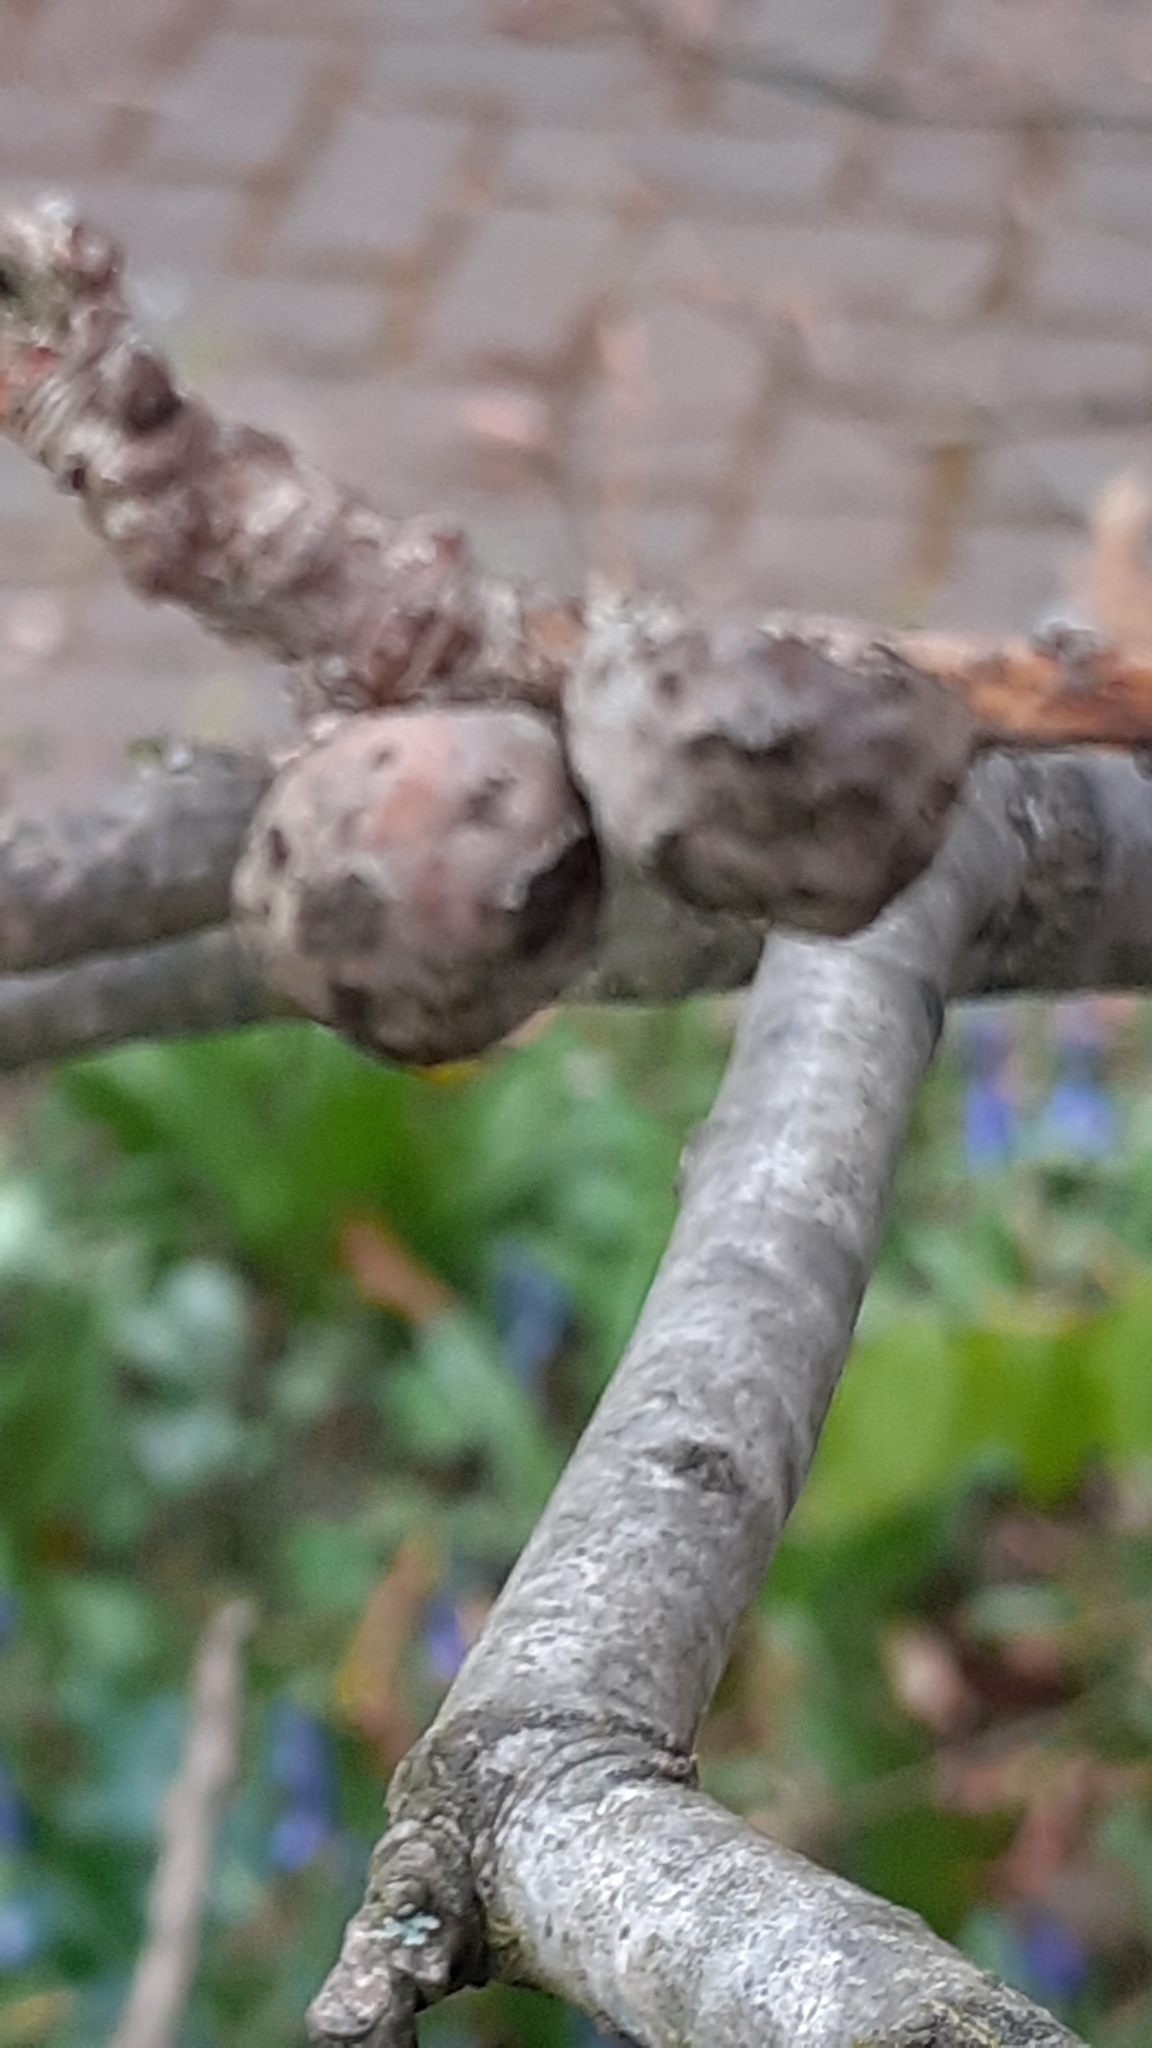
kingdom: Animalia
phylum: Arthropoda
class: Insecta
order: Hymenoptera
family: Cynipidae
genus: Andricus
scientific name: Andricus lignicolus
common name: Cola-nut gall
